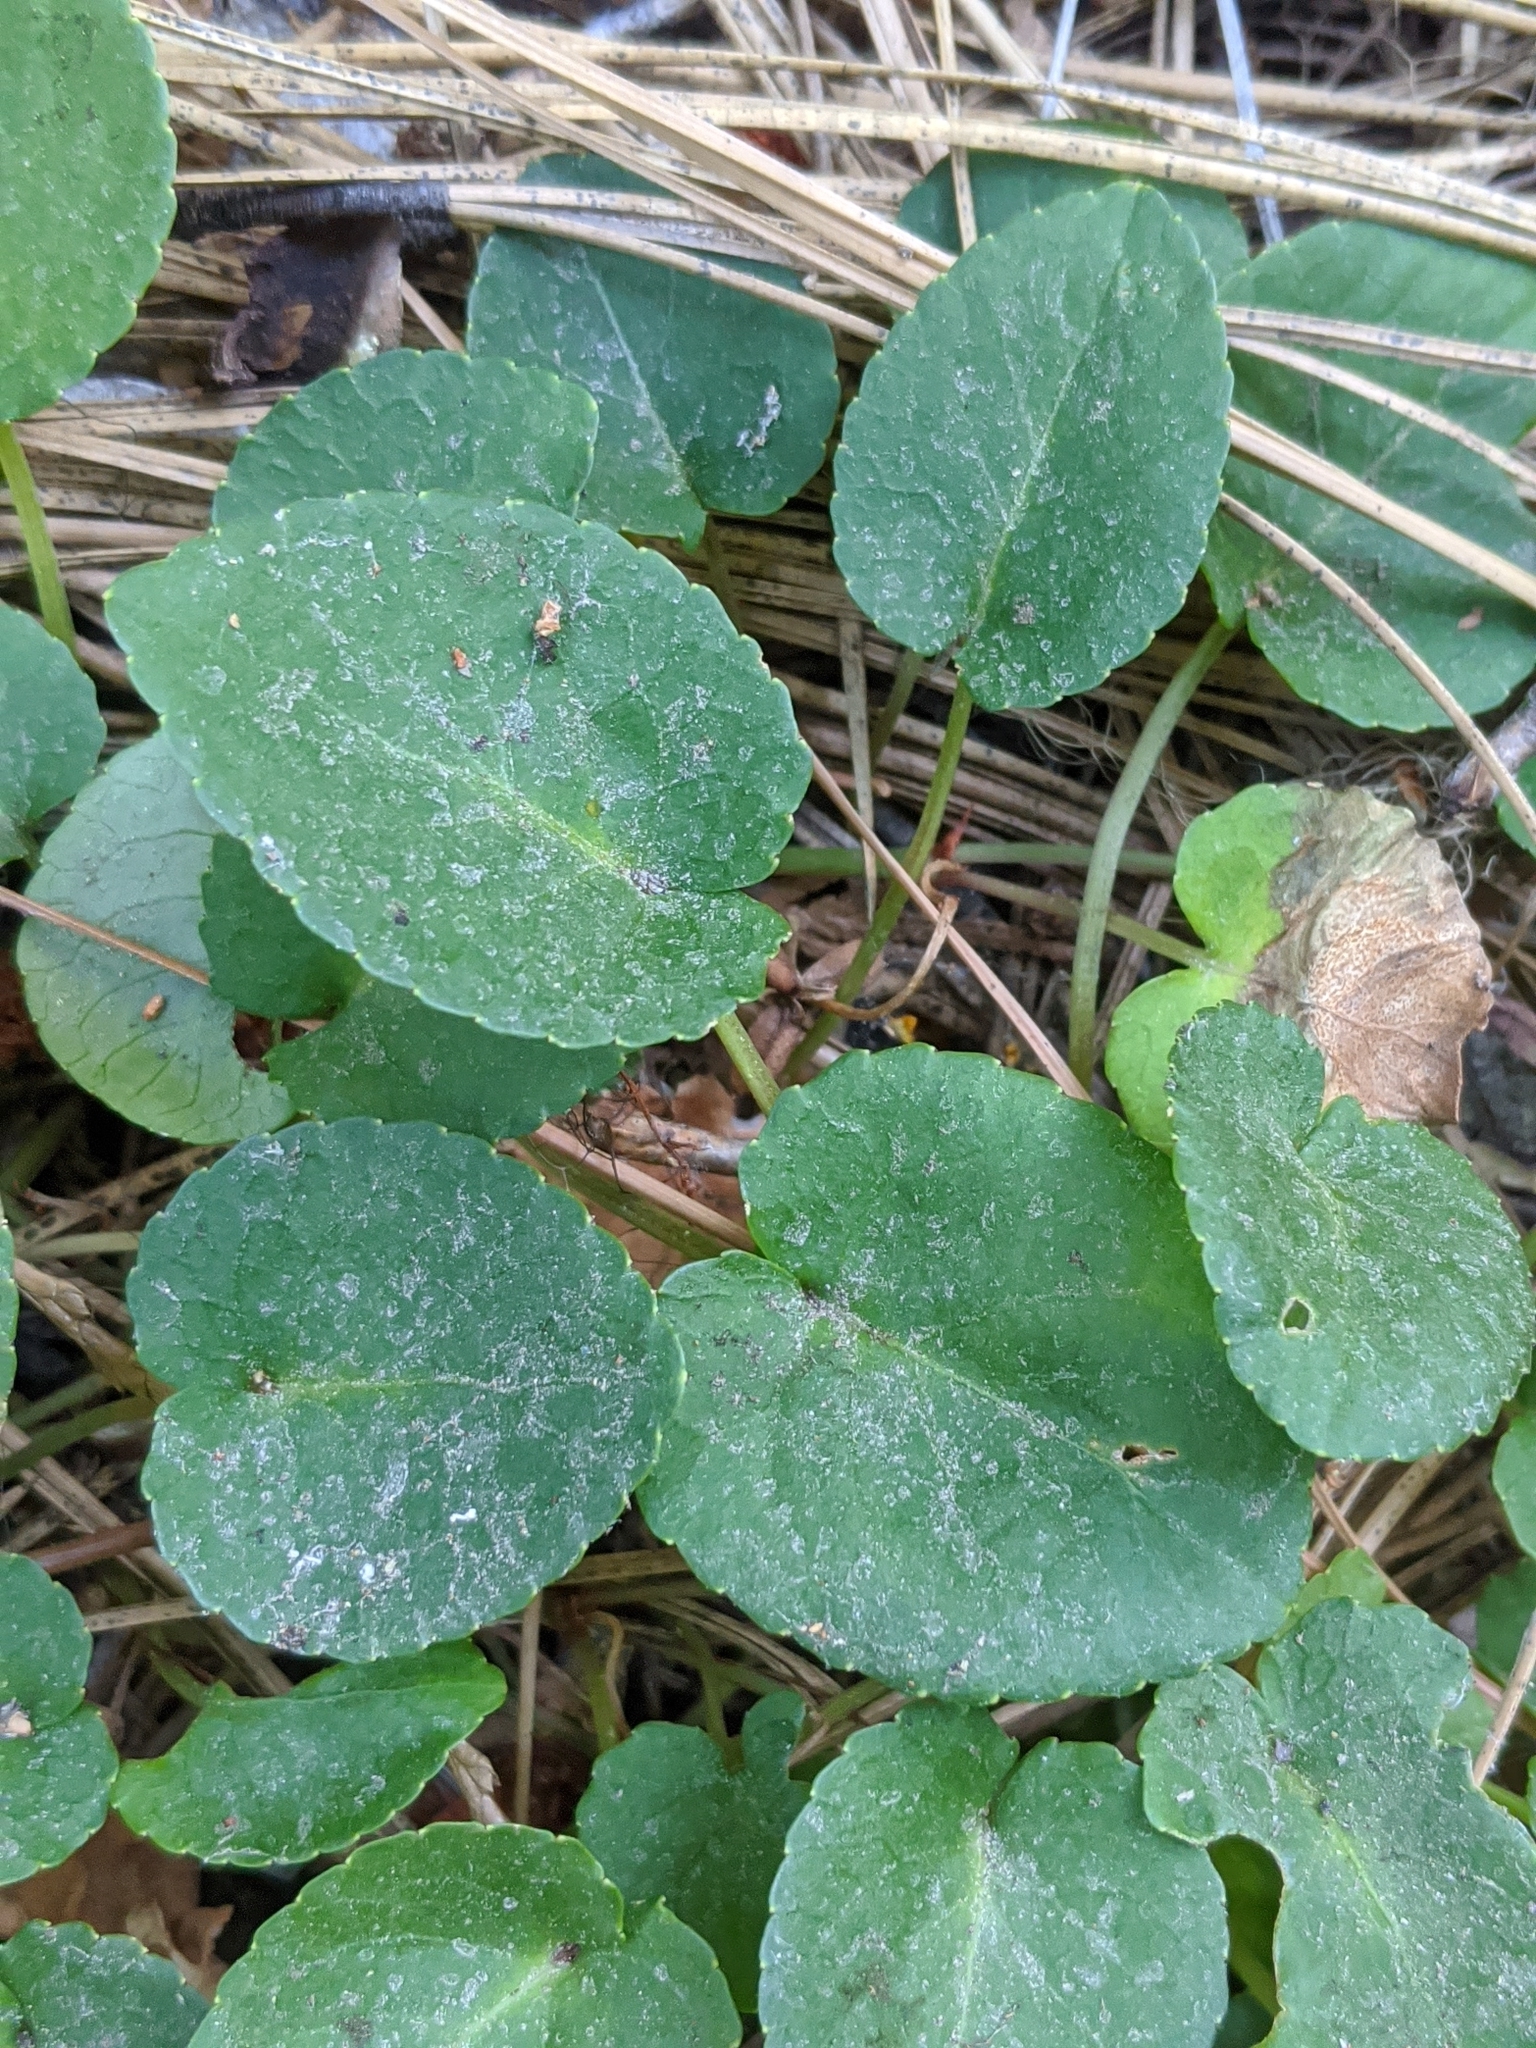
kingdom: Plantae
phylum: Tracheophyta
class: Magnoliopsida
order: Malpighiales
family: Violaceae
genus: Viola
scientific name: Viola sempervirens
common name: Evergreen violet
